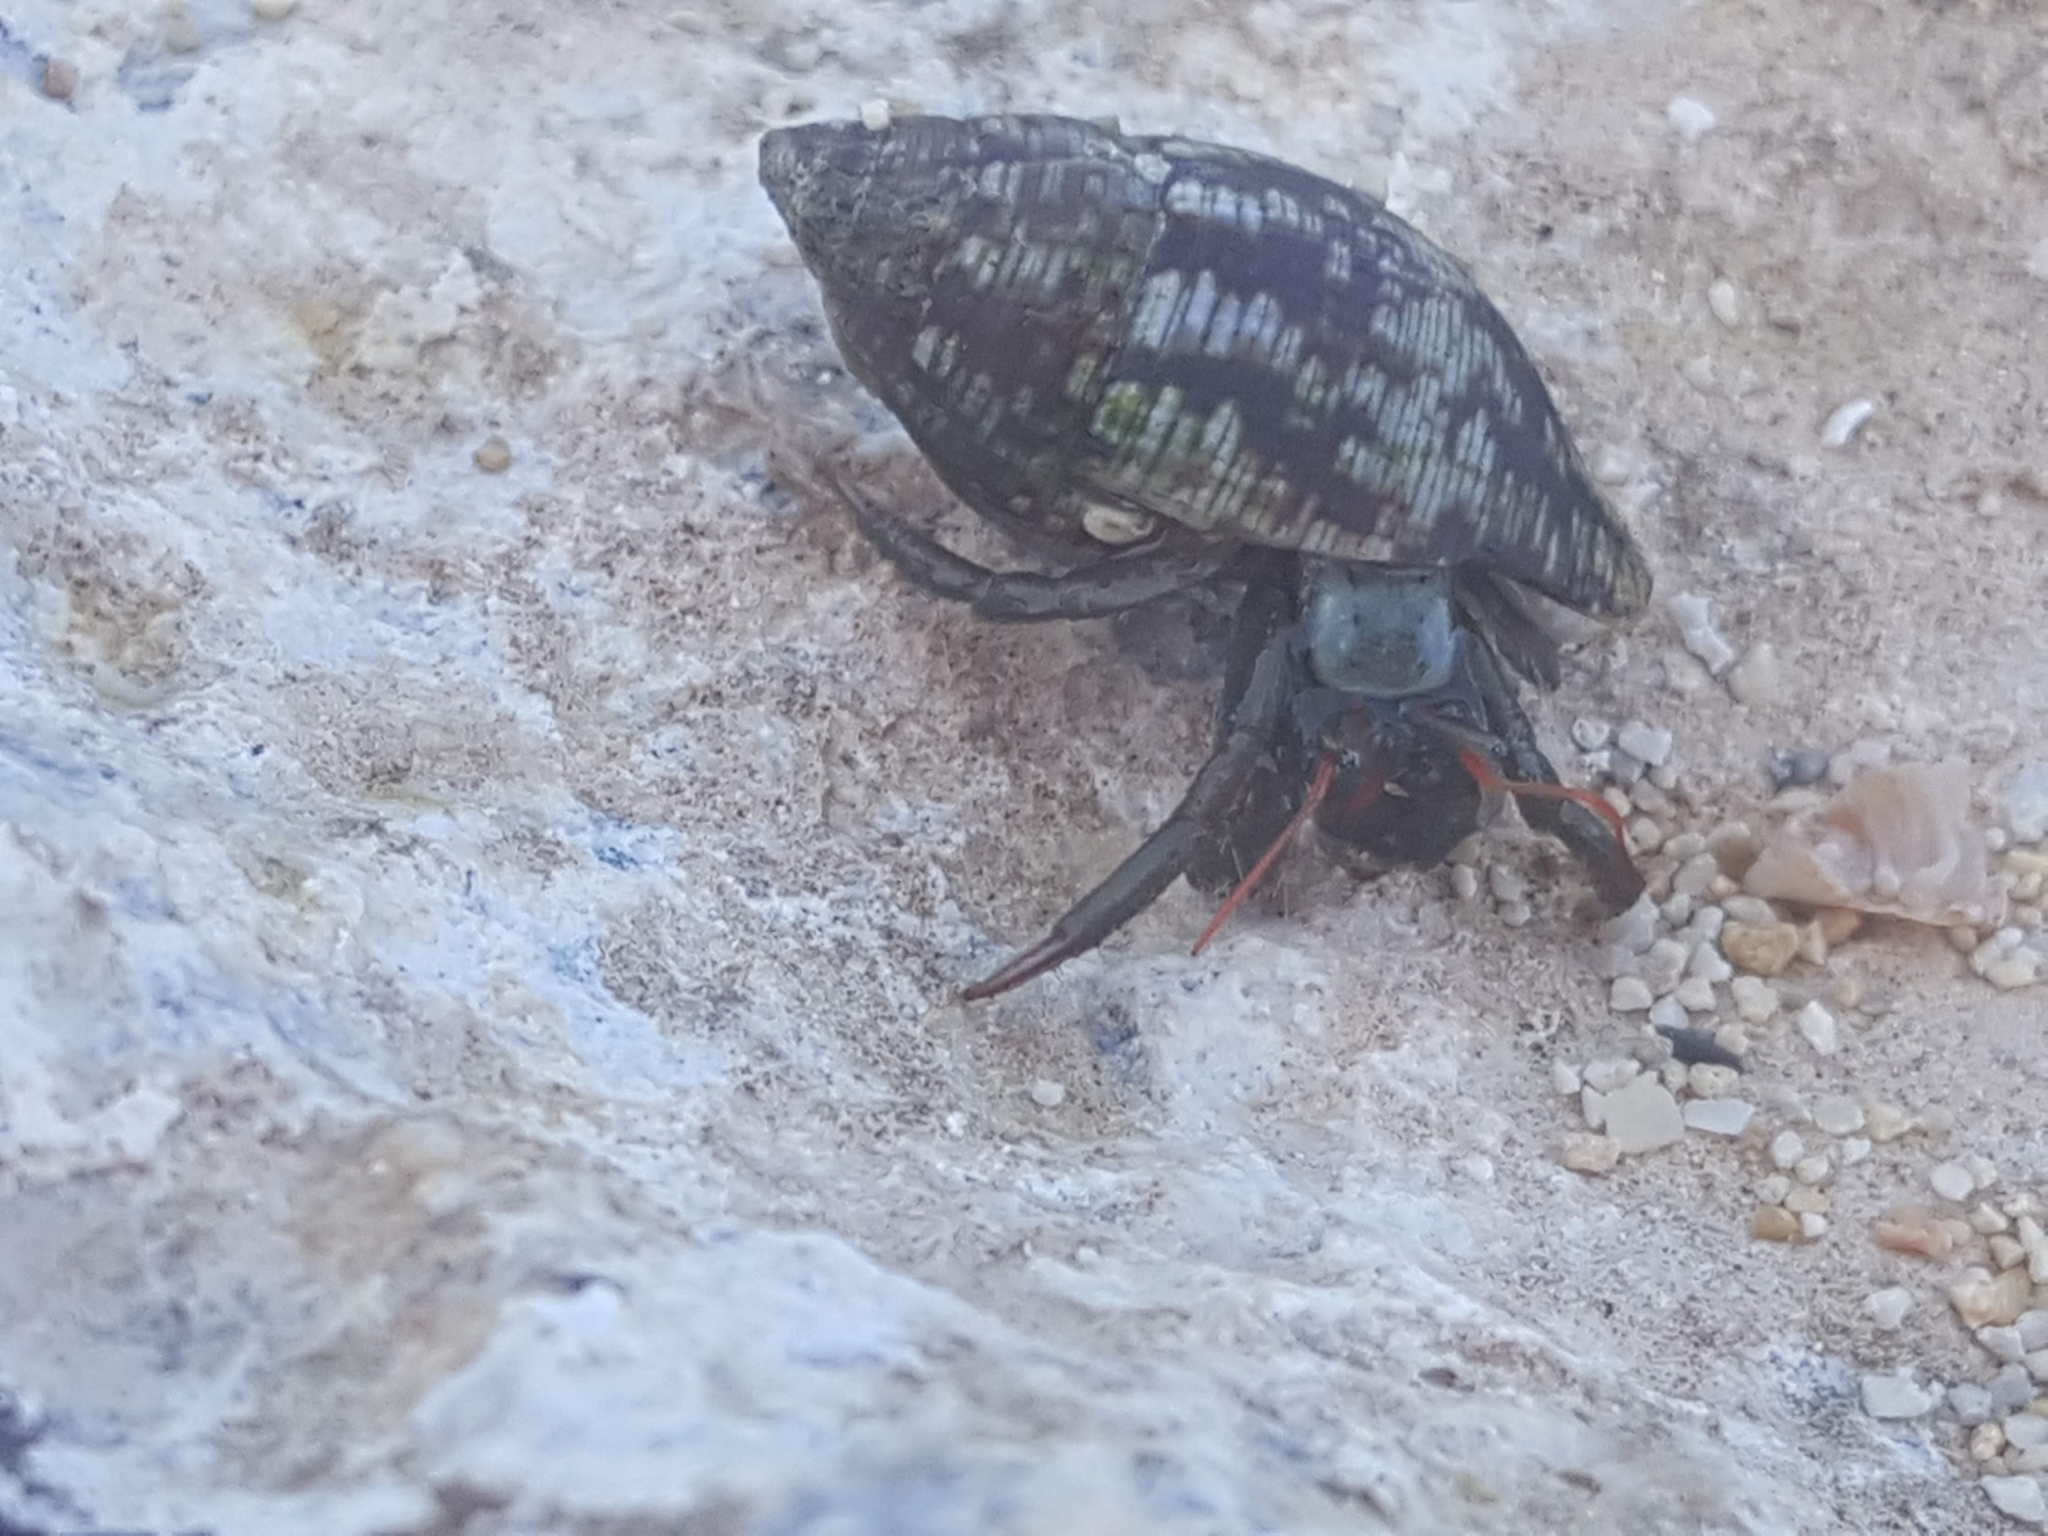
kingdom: Animalia
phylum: Arthropoda
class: Malacostraca
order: Decapoda
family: Diogenidae
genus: Clibanarius
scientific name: Clibanarius erythropus
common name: Hermit crab
